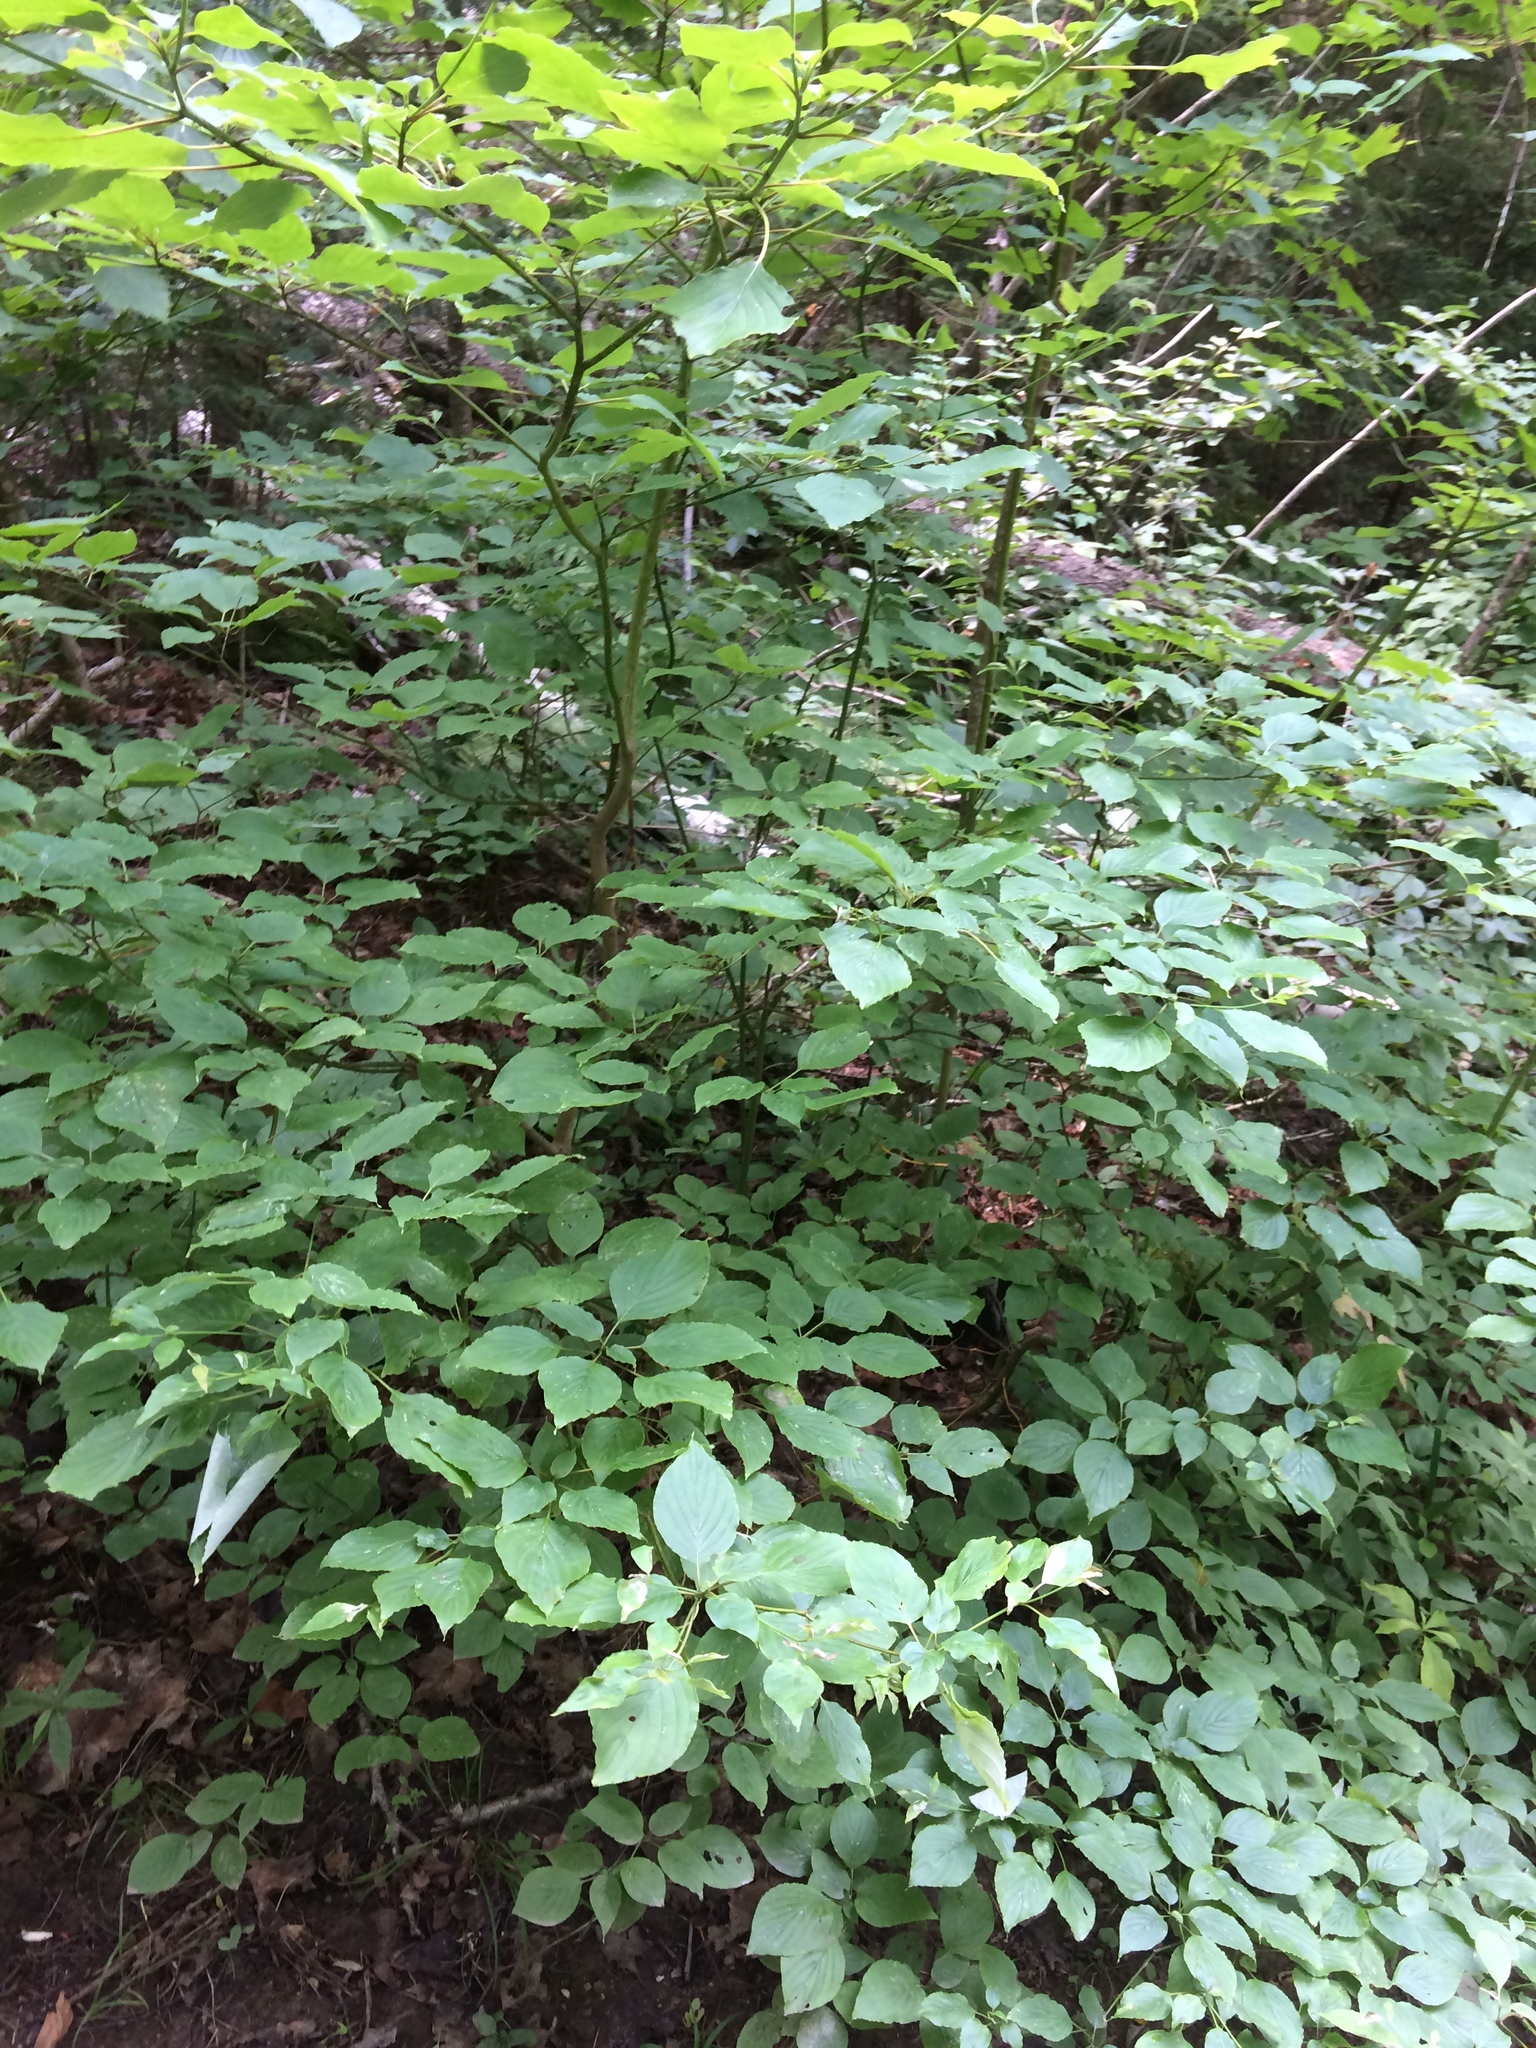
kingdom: Plantae
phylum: Tracheophyta
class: Magnoliopsida
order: Cornales
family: Cornaceae
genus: Cornus
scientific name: Cornus alternifolia
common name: Pagoda dogwood
